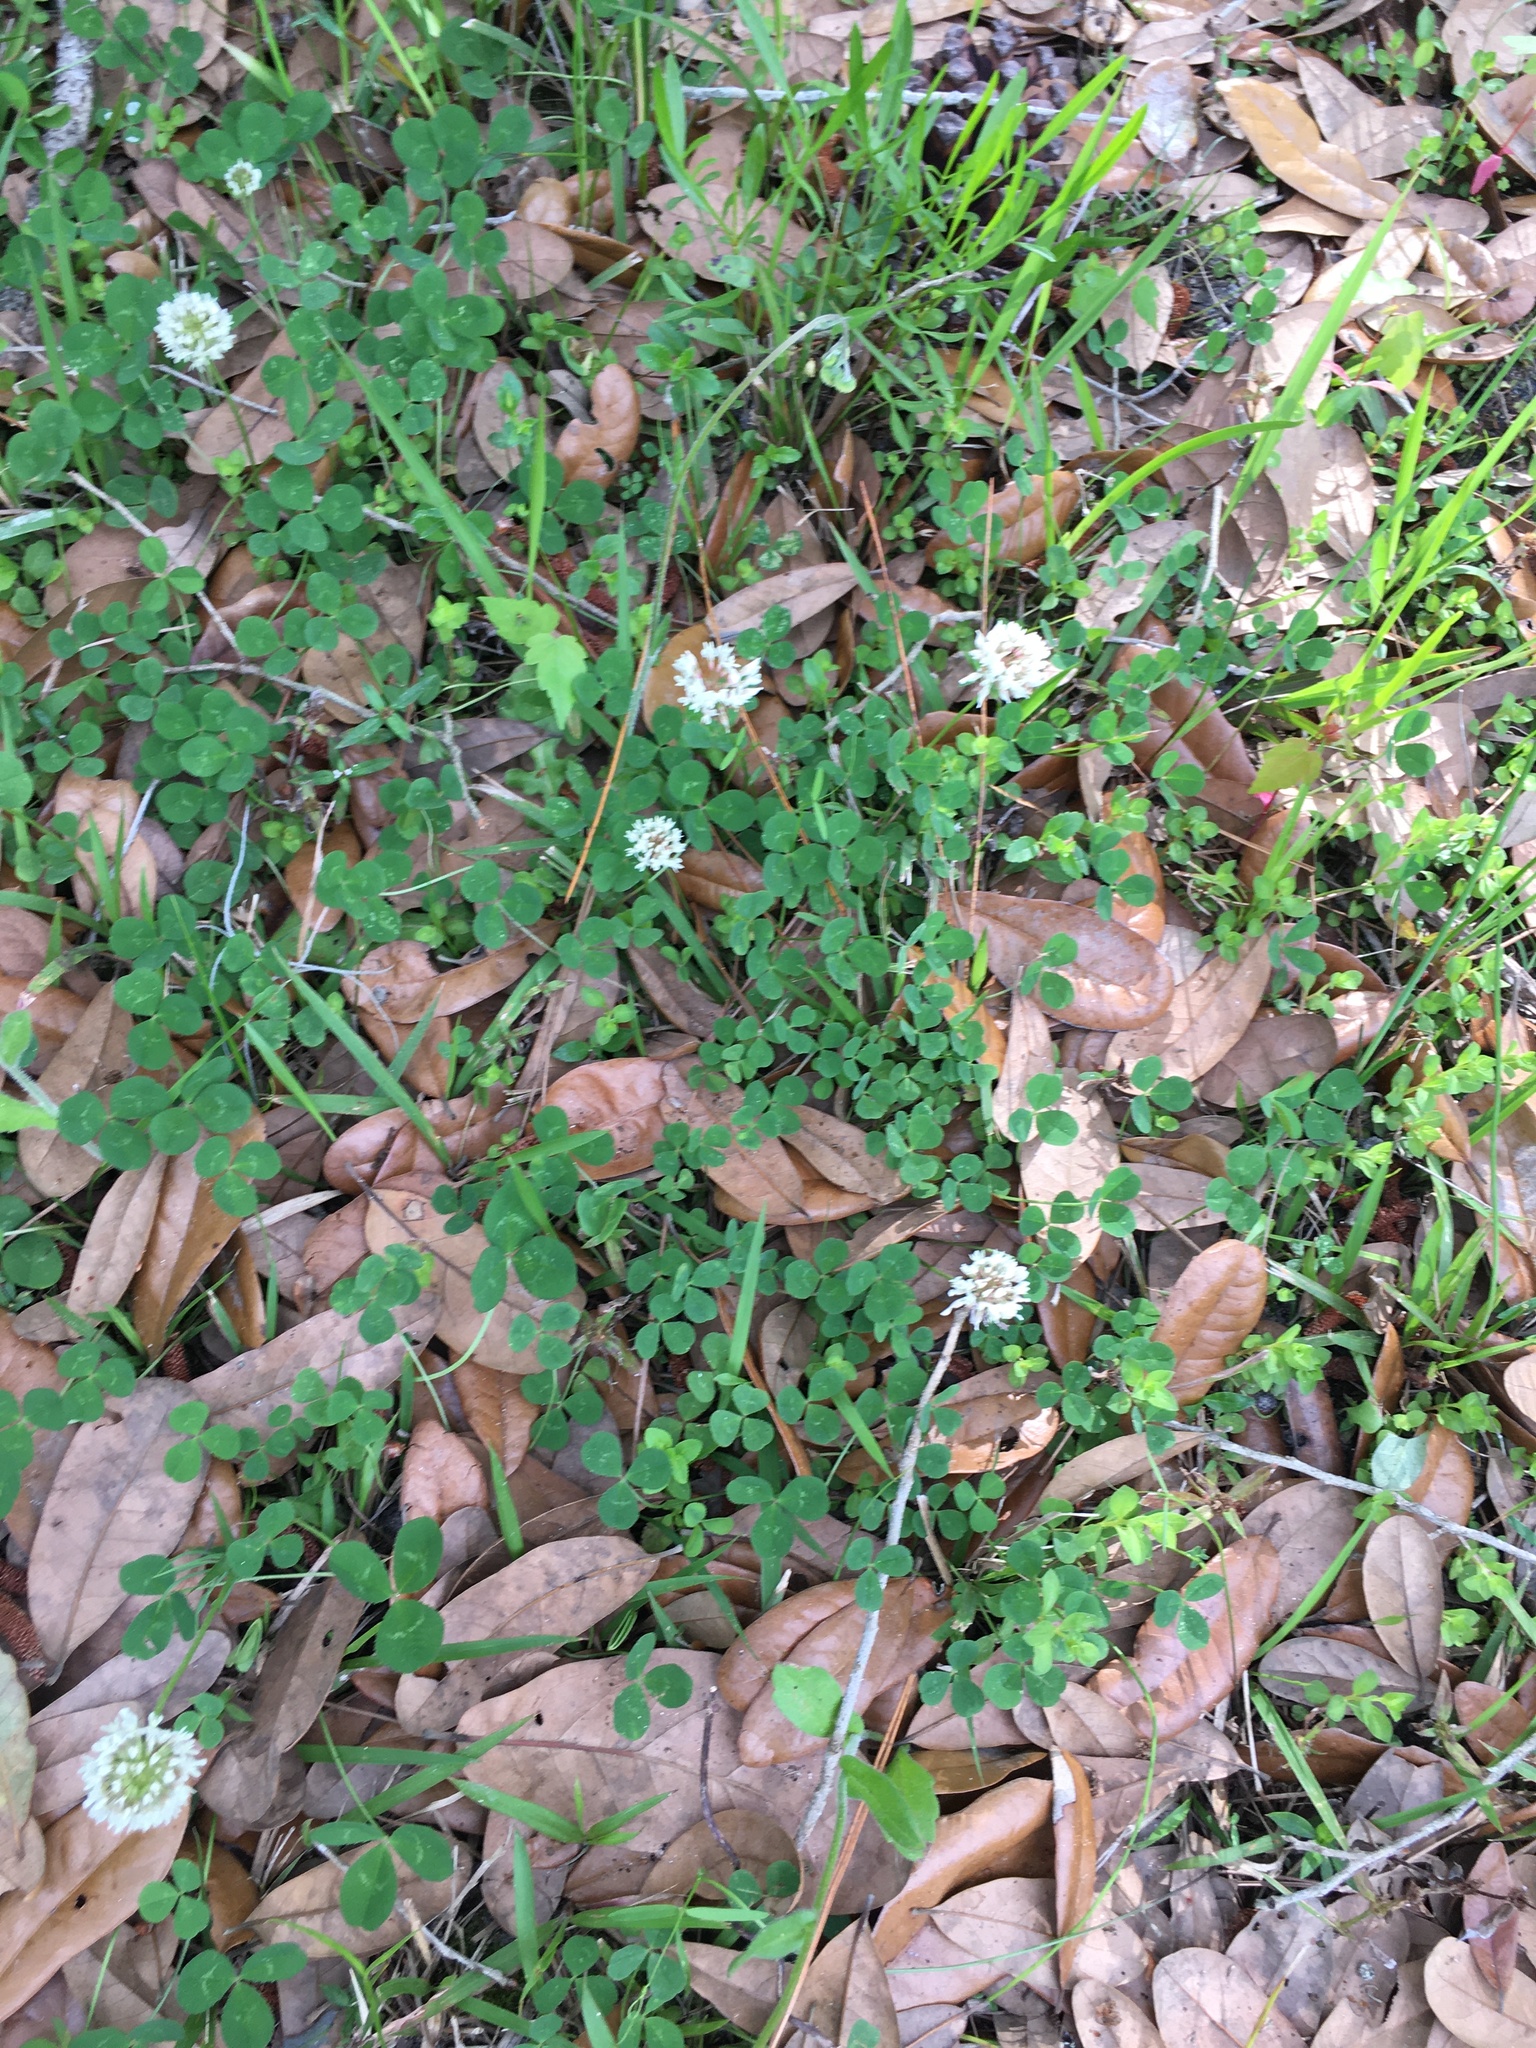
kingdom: Plantae
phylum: Tracheophyta
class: Magnoliopsida
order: Fabales
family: Fabaceae
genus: Trifolium
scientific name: Trifolium repens
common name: White clover
